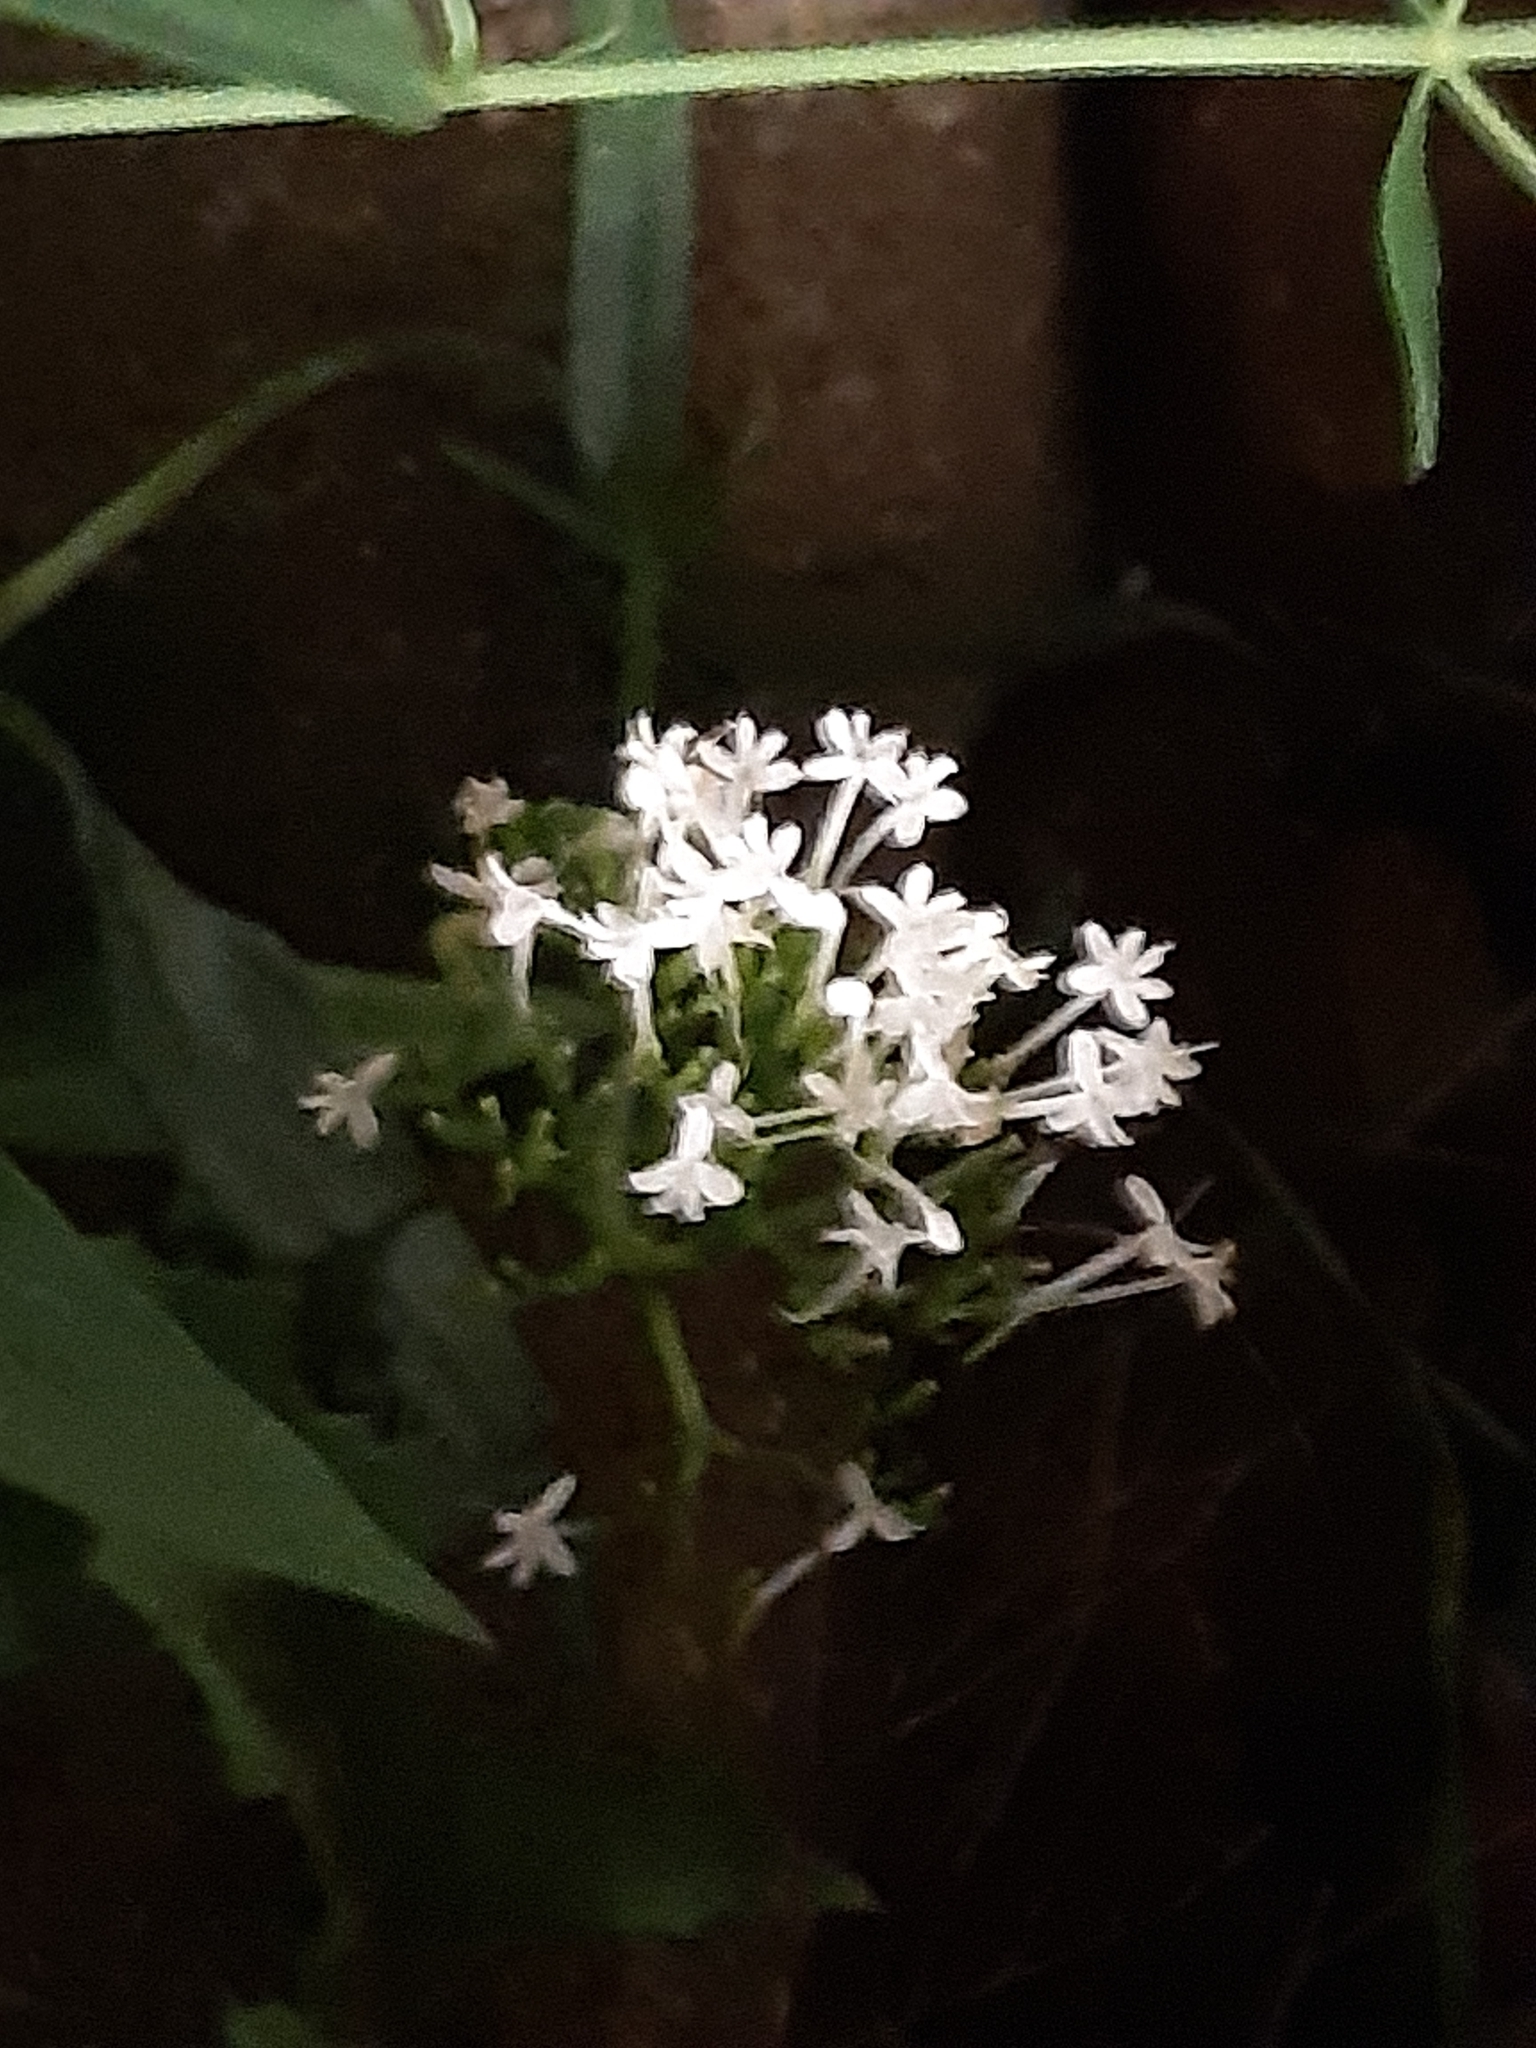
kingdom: Plantae
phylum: Tracheophyta
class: Magnoliopsida
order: Dipsacales
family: Caprifoliaceae
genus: Centranthus
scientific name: Centranthus ruber
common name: Red valerian
